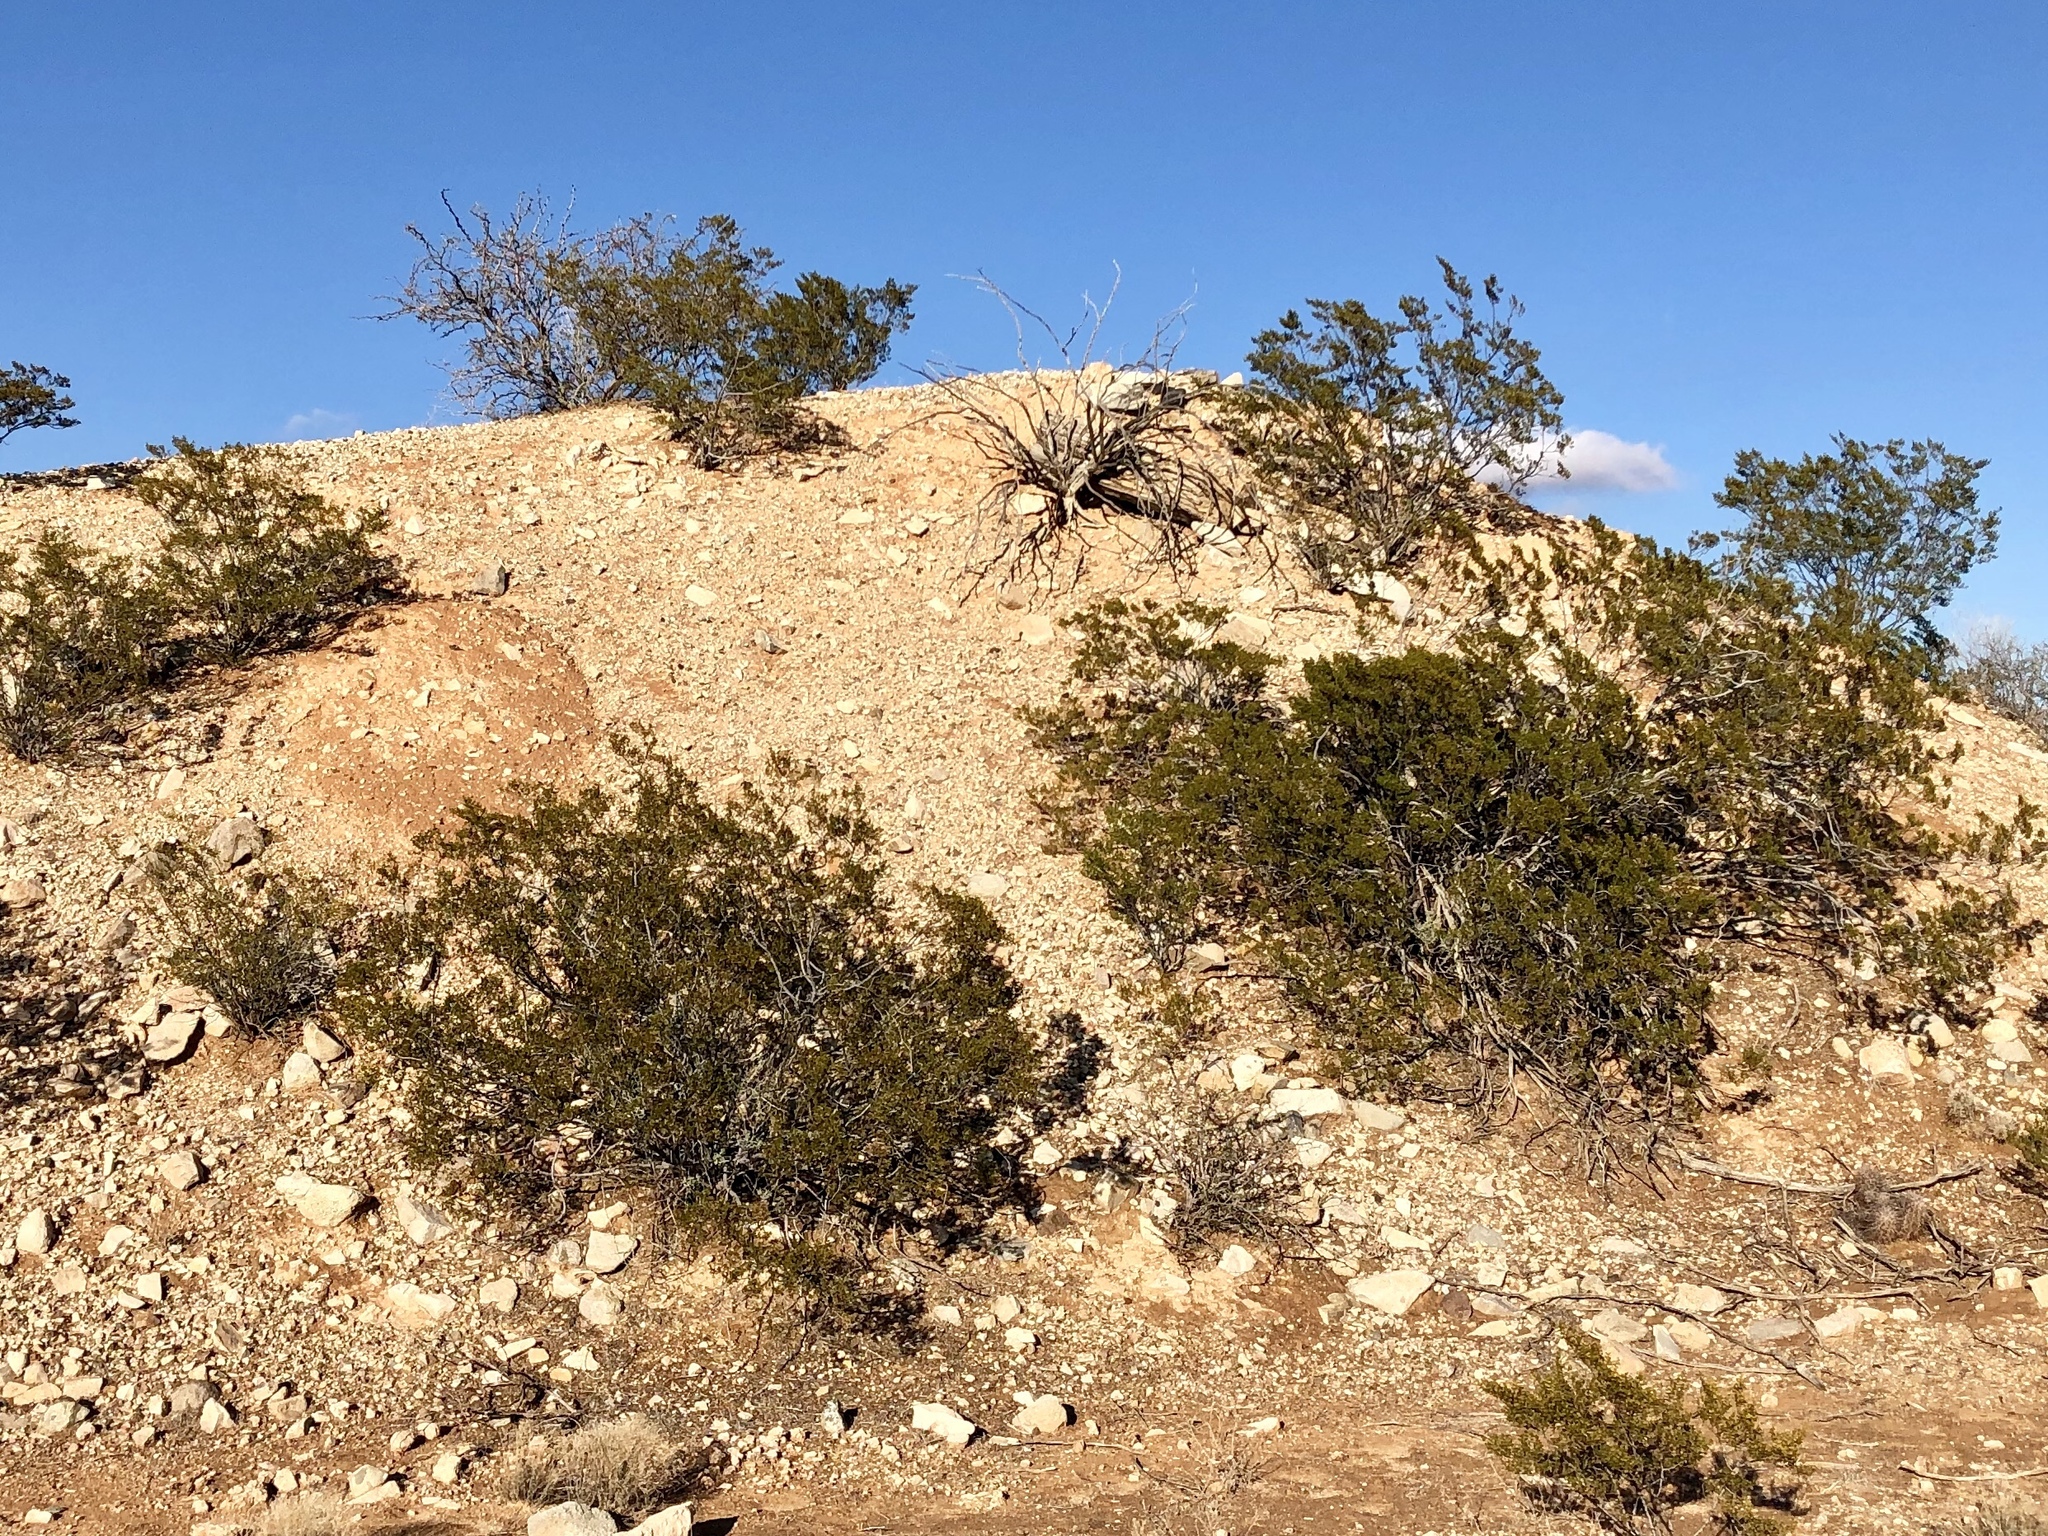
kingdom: Plantae
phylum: Tracheophyta
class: Magnoliopsida
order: Zygophyllales
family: Zygophyllaceae
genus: Larrea
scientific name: Larrea tridentata
